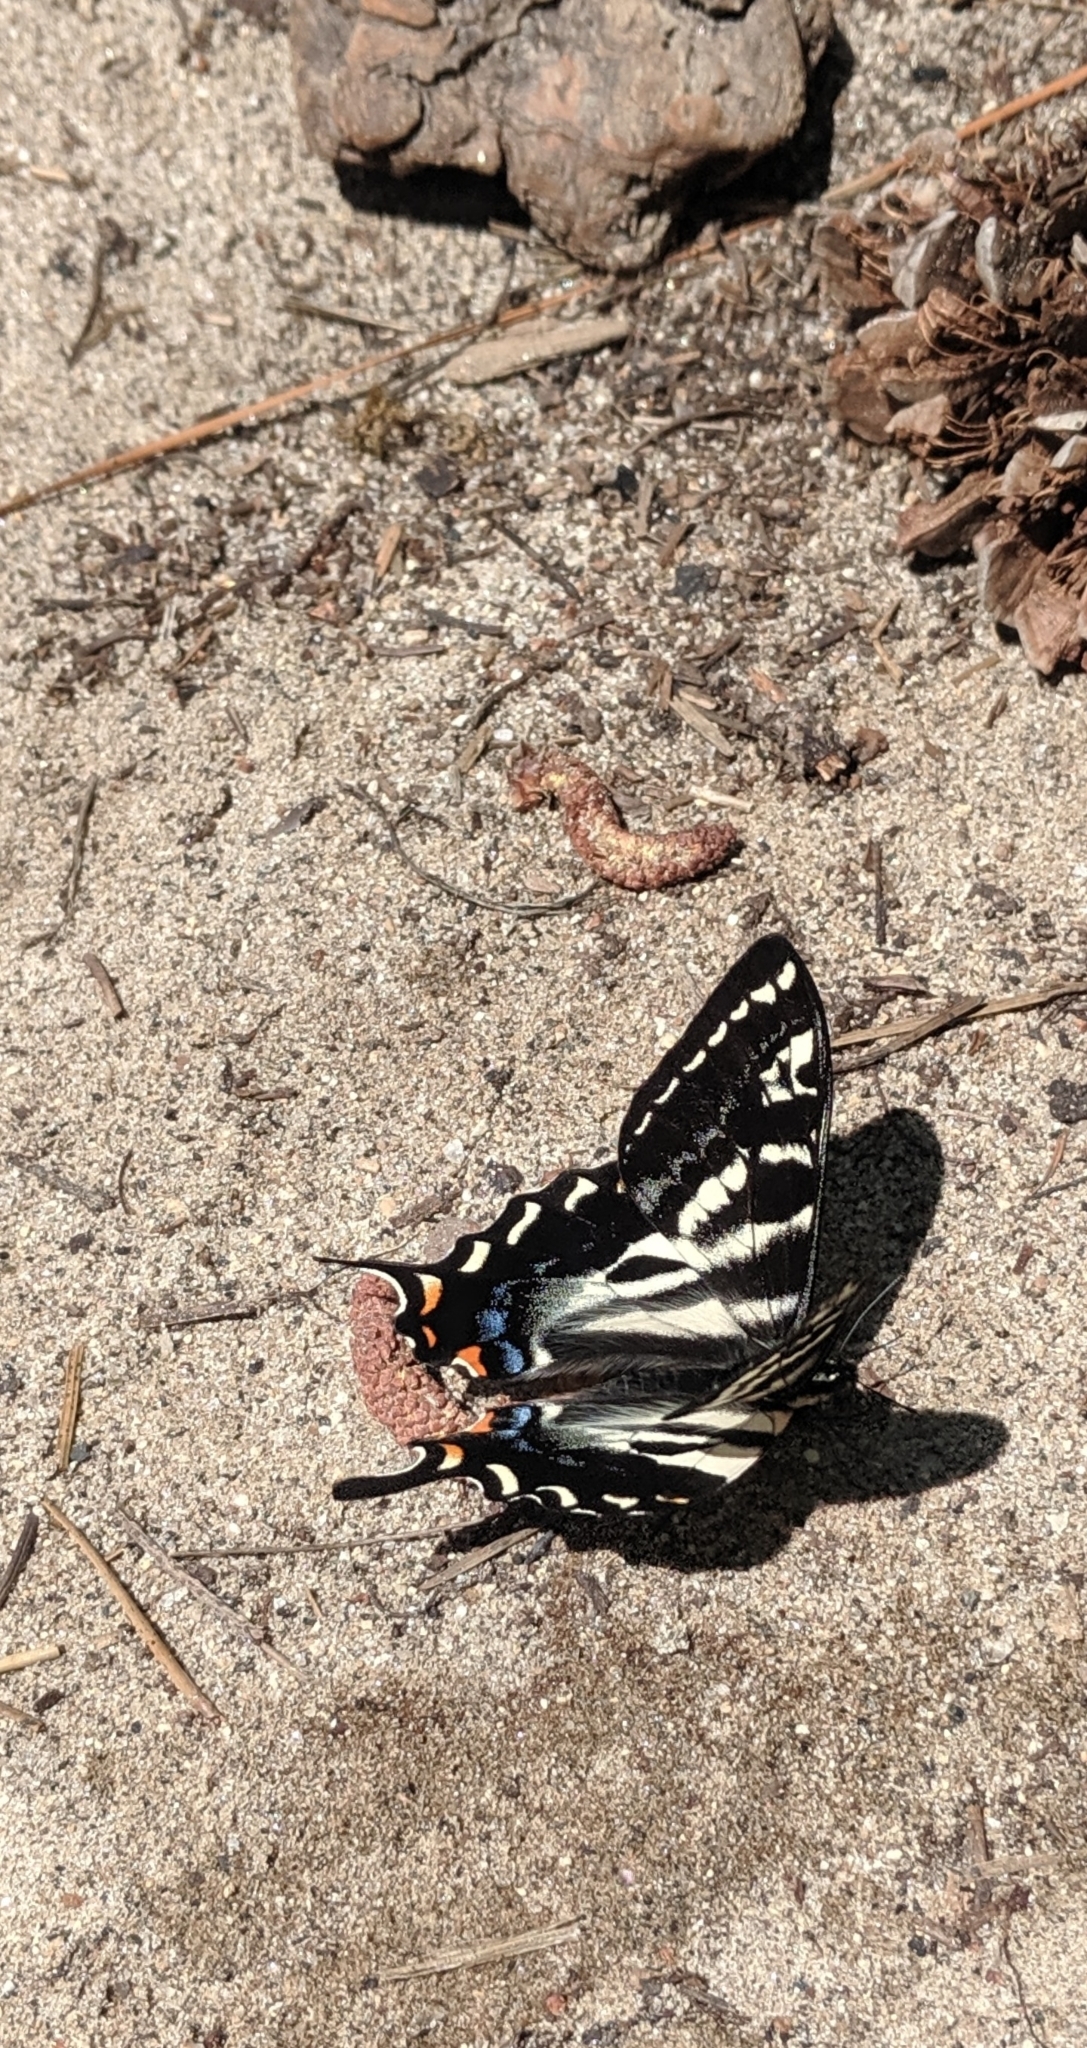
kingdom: Animalia
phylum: Arthropoda
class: Insecta
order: Lepidoptera
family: Papilionidae
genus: Papilio
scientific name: Papilio eurymedon
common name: Pale tiger swallowtail
